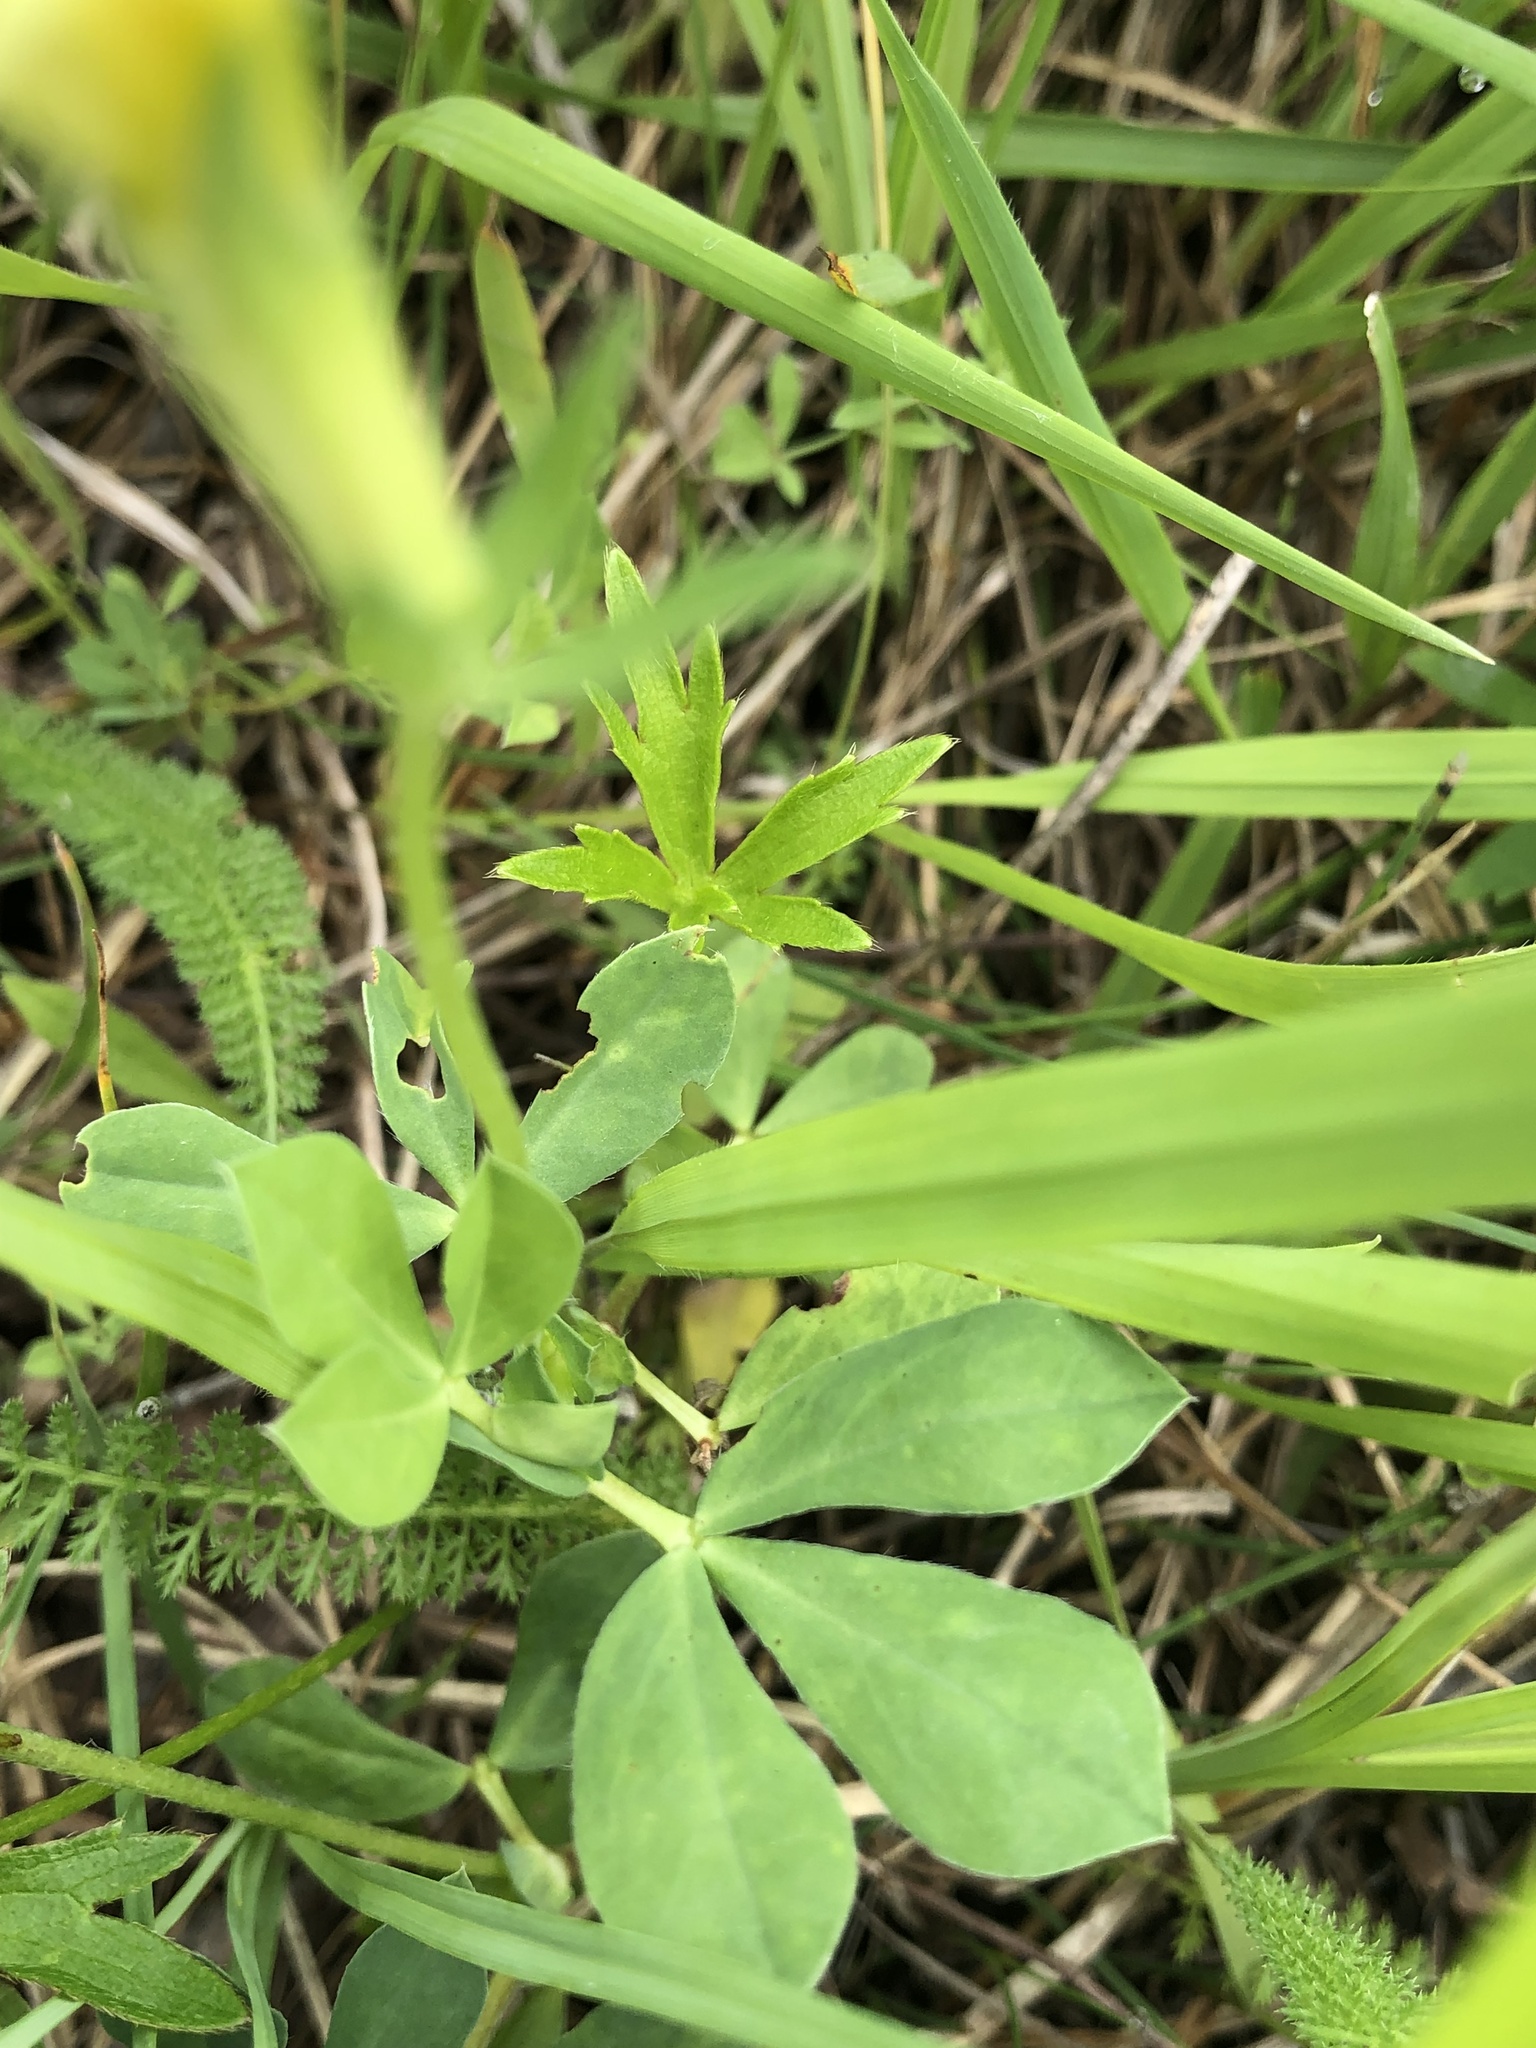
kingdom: Plantae
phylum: Tracheophyta
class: Magnoliopsida
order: Fabales
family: Fabaceae
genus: Lotus
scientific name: Lotus maritimus
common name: Dragon's-teeth
